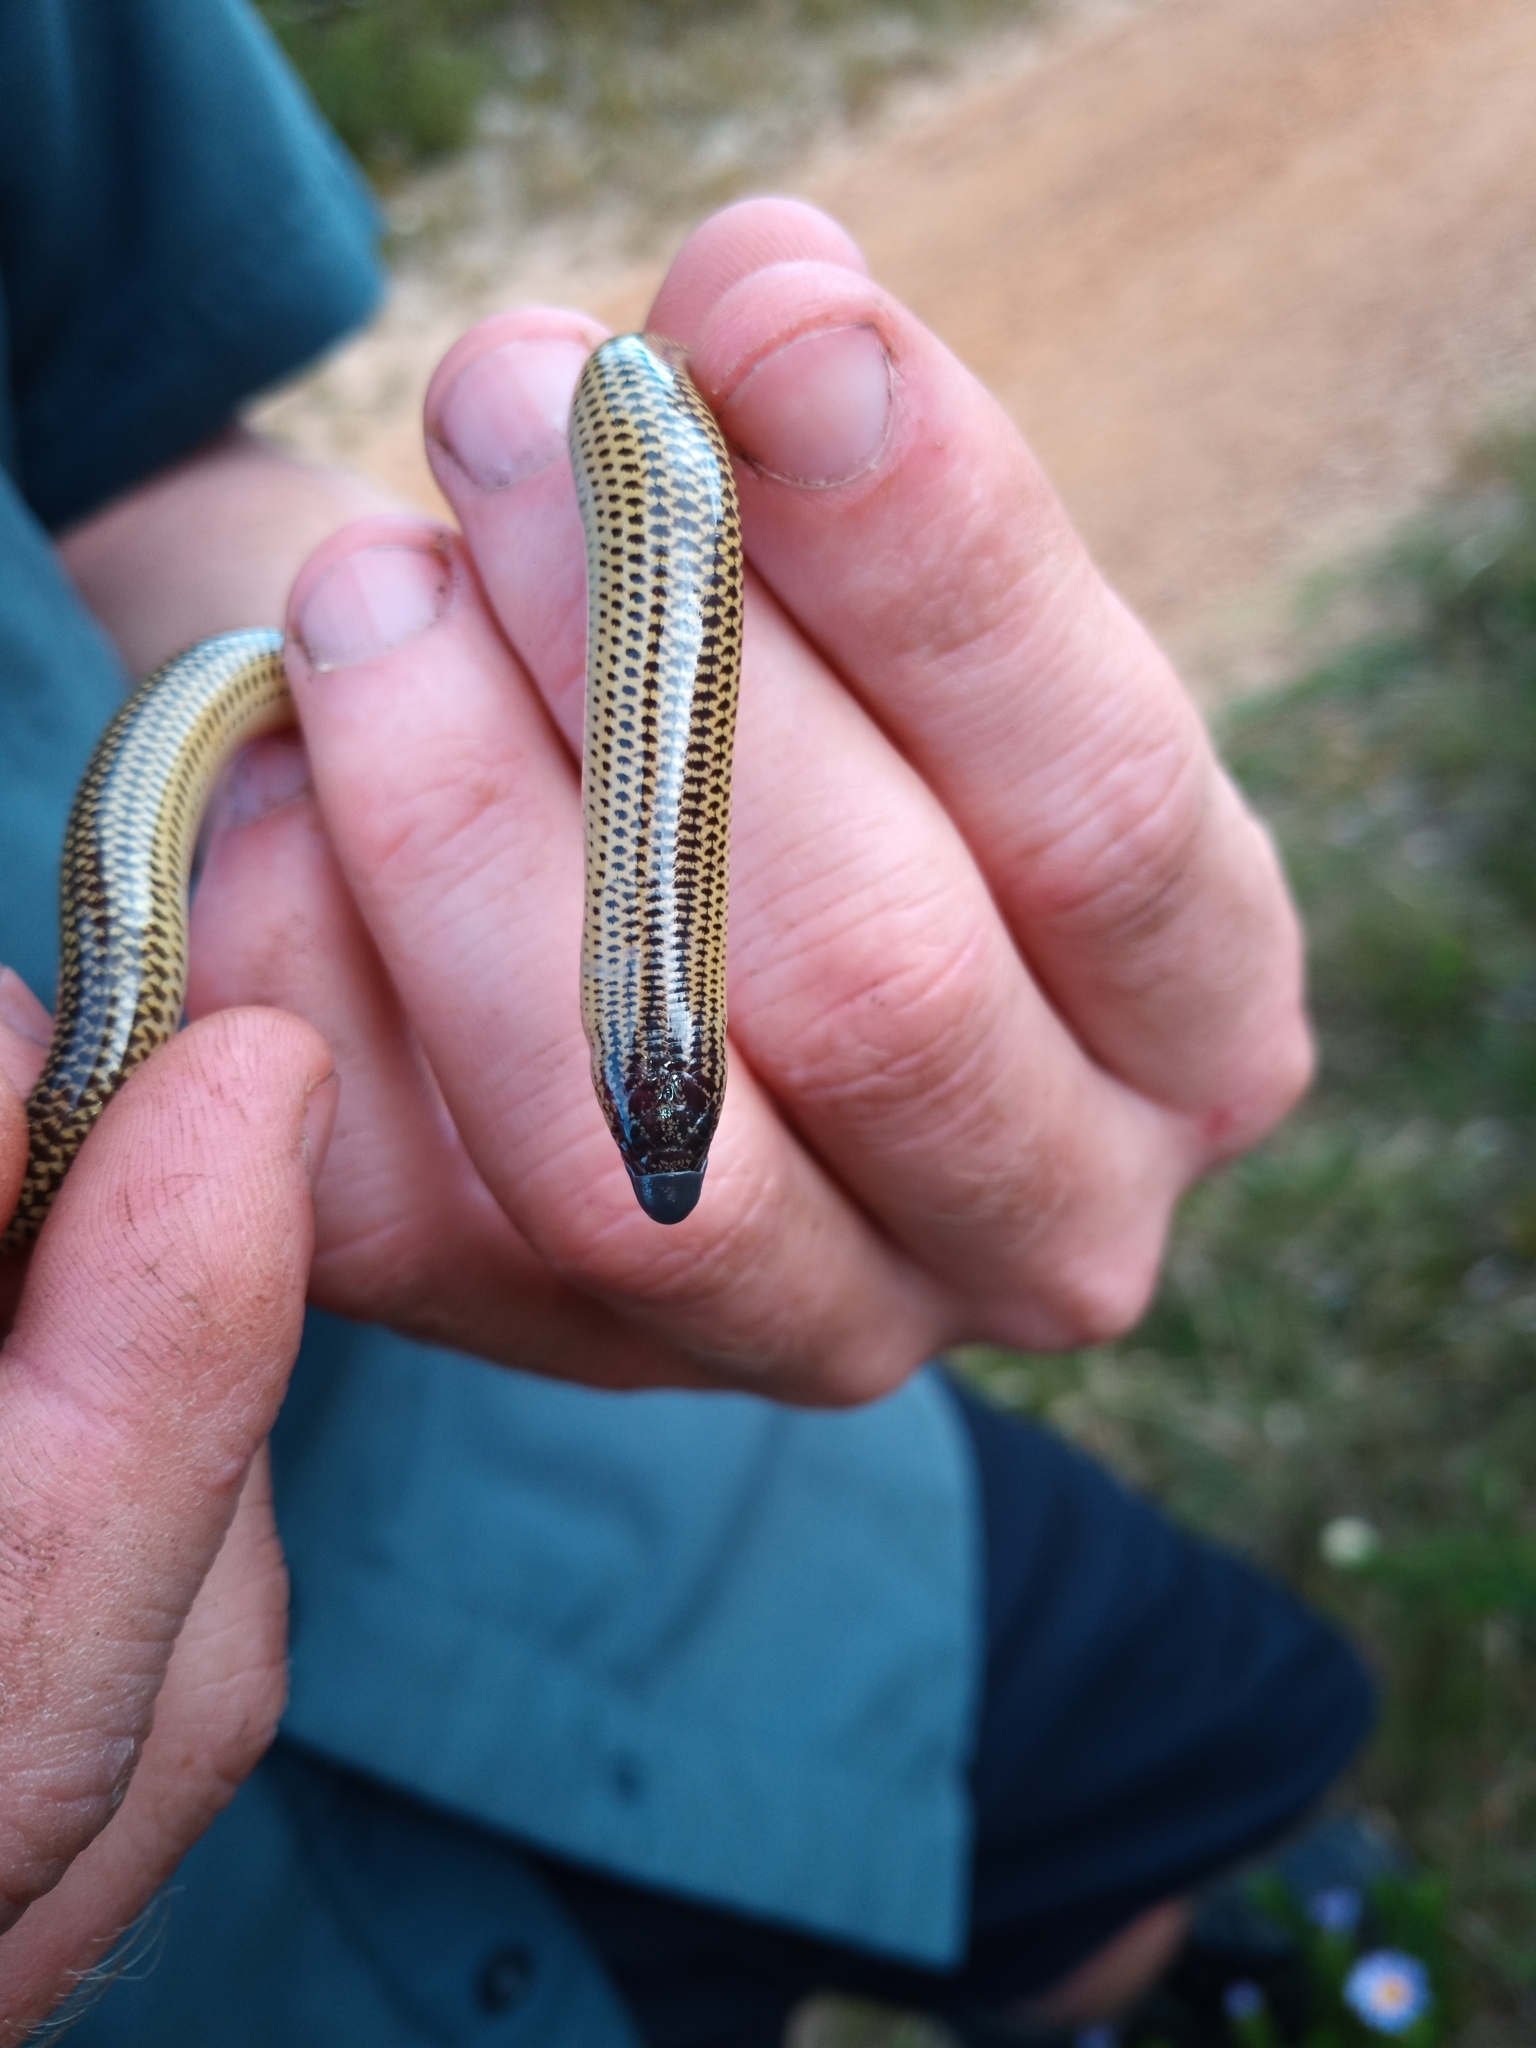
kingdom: Animalia
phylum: Chordata
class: Squamata
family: Scincidae
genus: Acontias
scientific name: Acontias meleagris
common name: Cape legless skink
